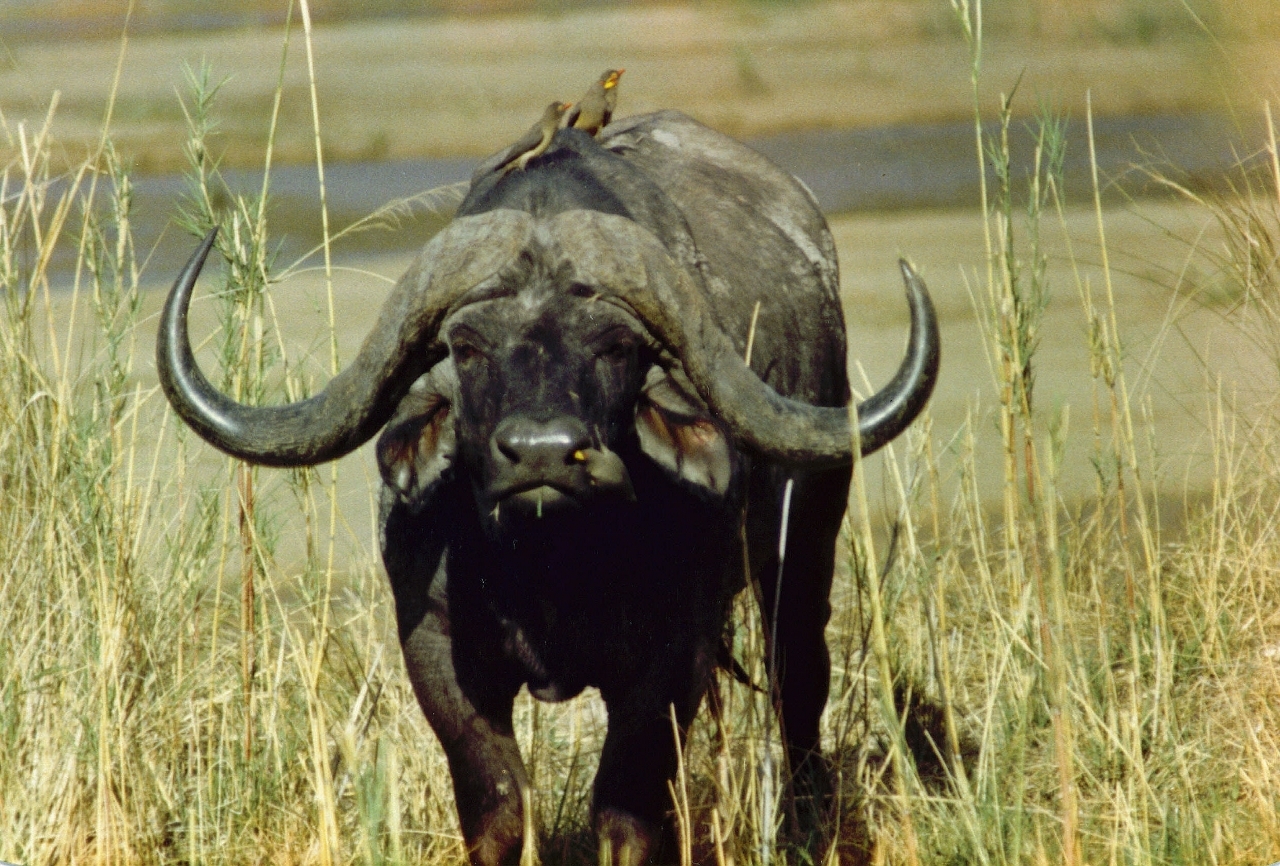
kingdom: Animalia
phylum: Chordata
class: Aves
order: Passeriformes
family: Buphagidae
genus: Buphagus
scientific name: Buphagus africanus
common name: Yellow-billed oxpecker
